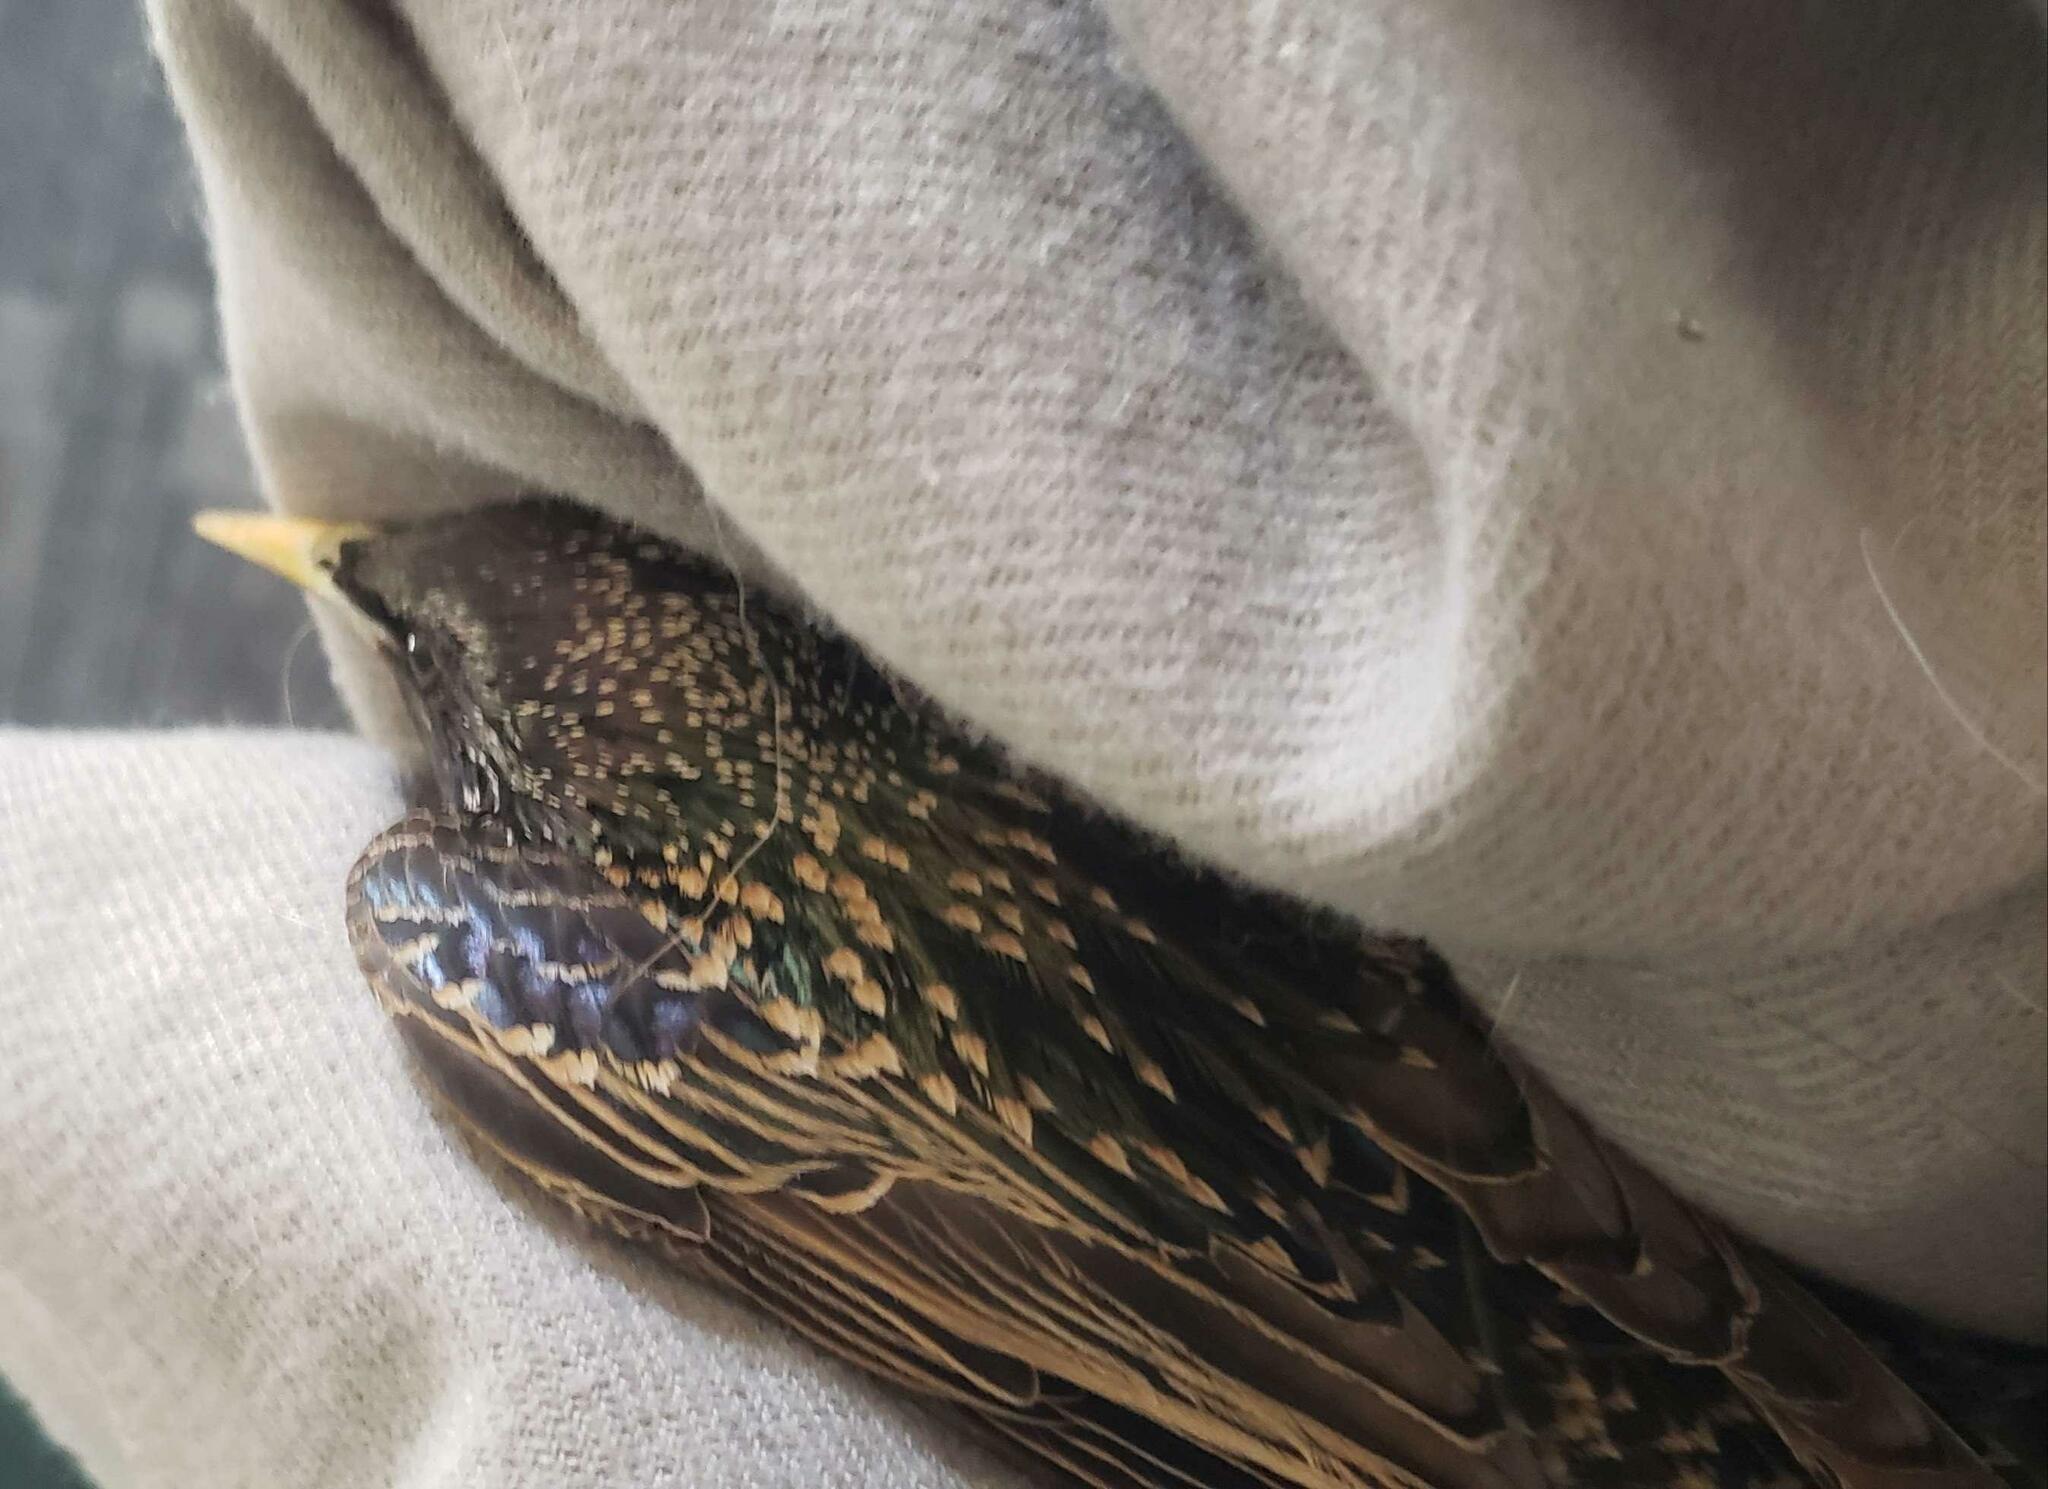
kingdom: Animalia
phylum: Chordata
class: Aves
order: Passeriformes
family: Sturnidae
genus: Sturnus
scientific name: Sturnus vulgaris
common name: Common starling
